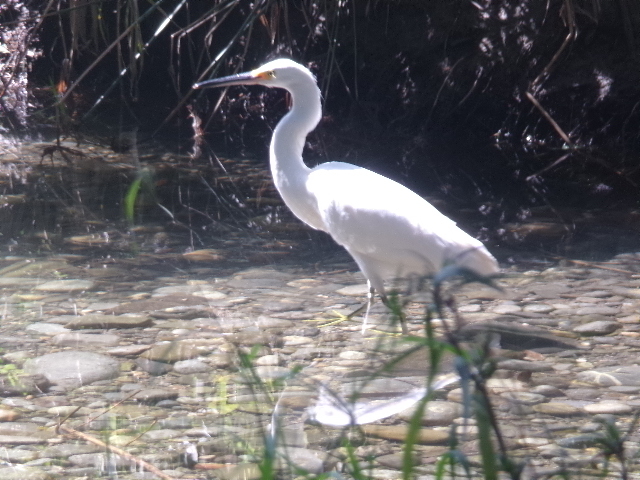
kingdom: Animalia
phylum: Chordata
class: Aves
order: Pelecaniformes
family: Ardeidae
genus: Egretta
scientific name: Egretta thula
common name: Snowy egret
